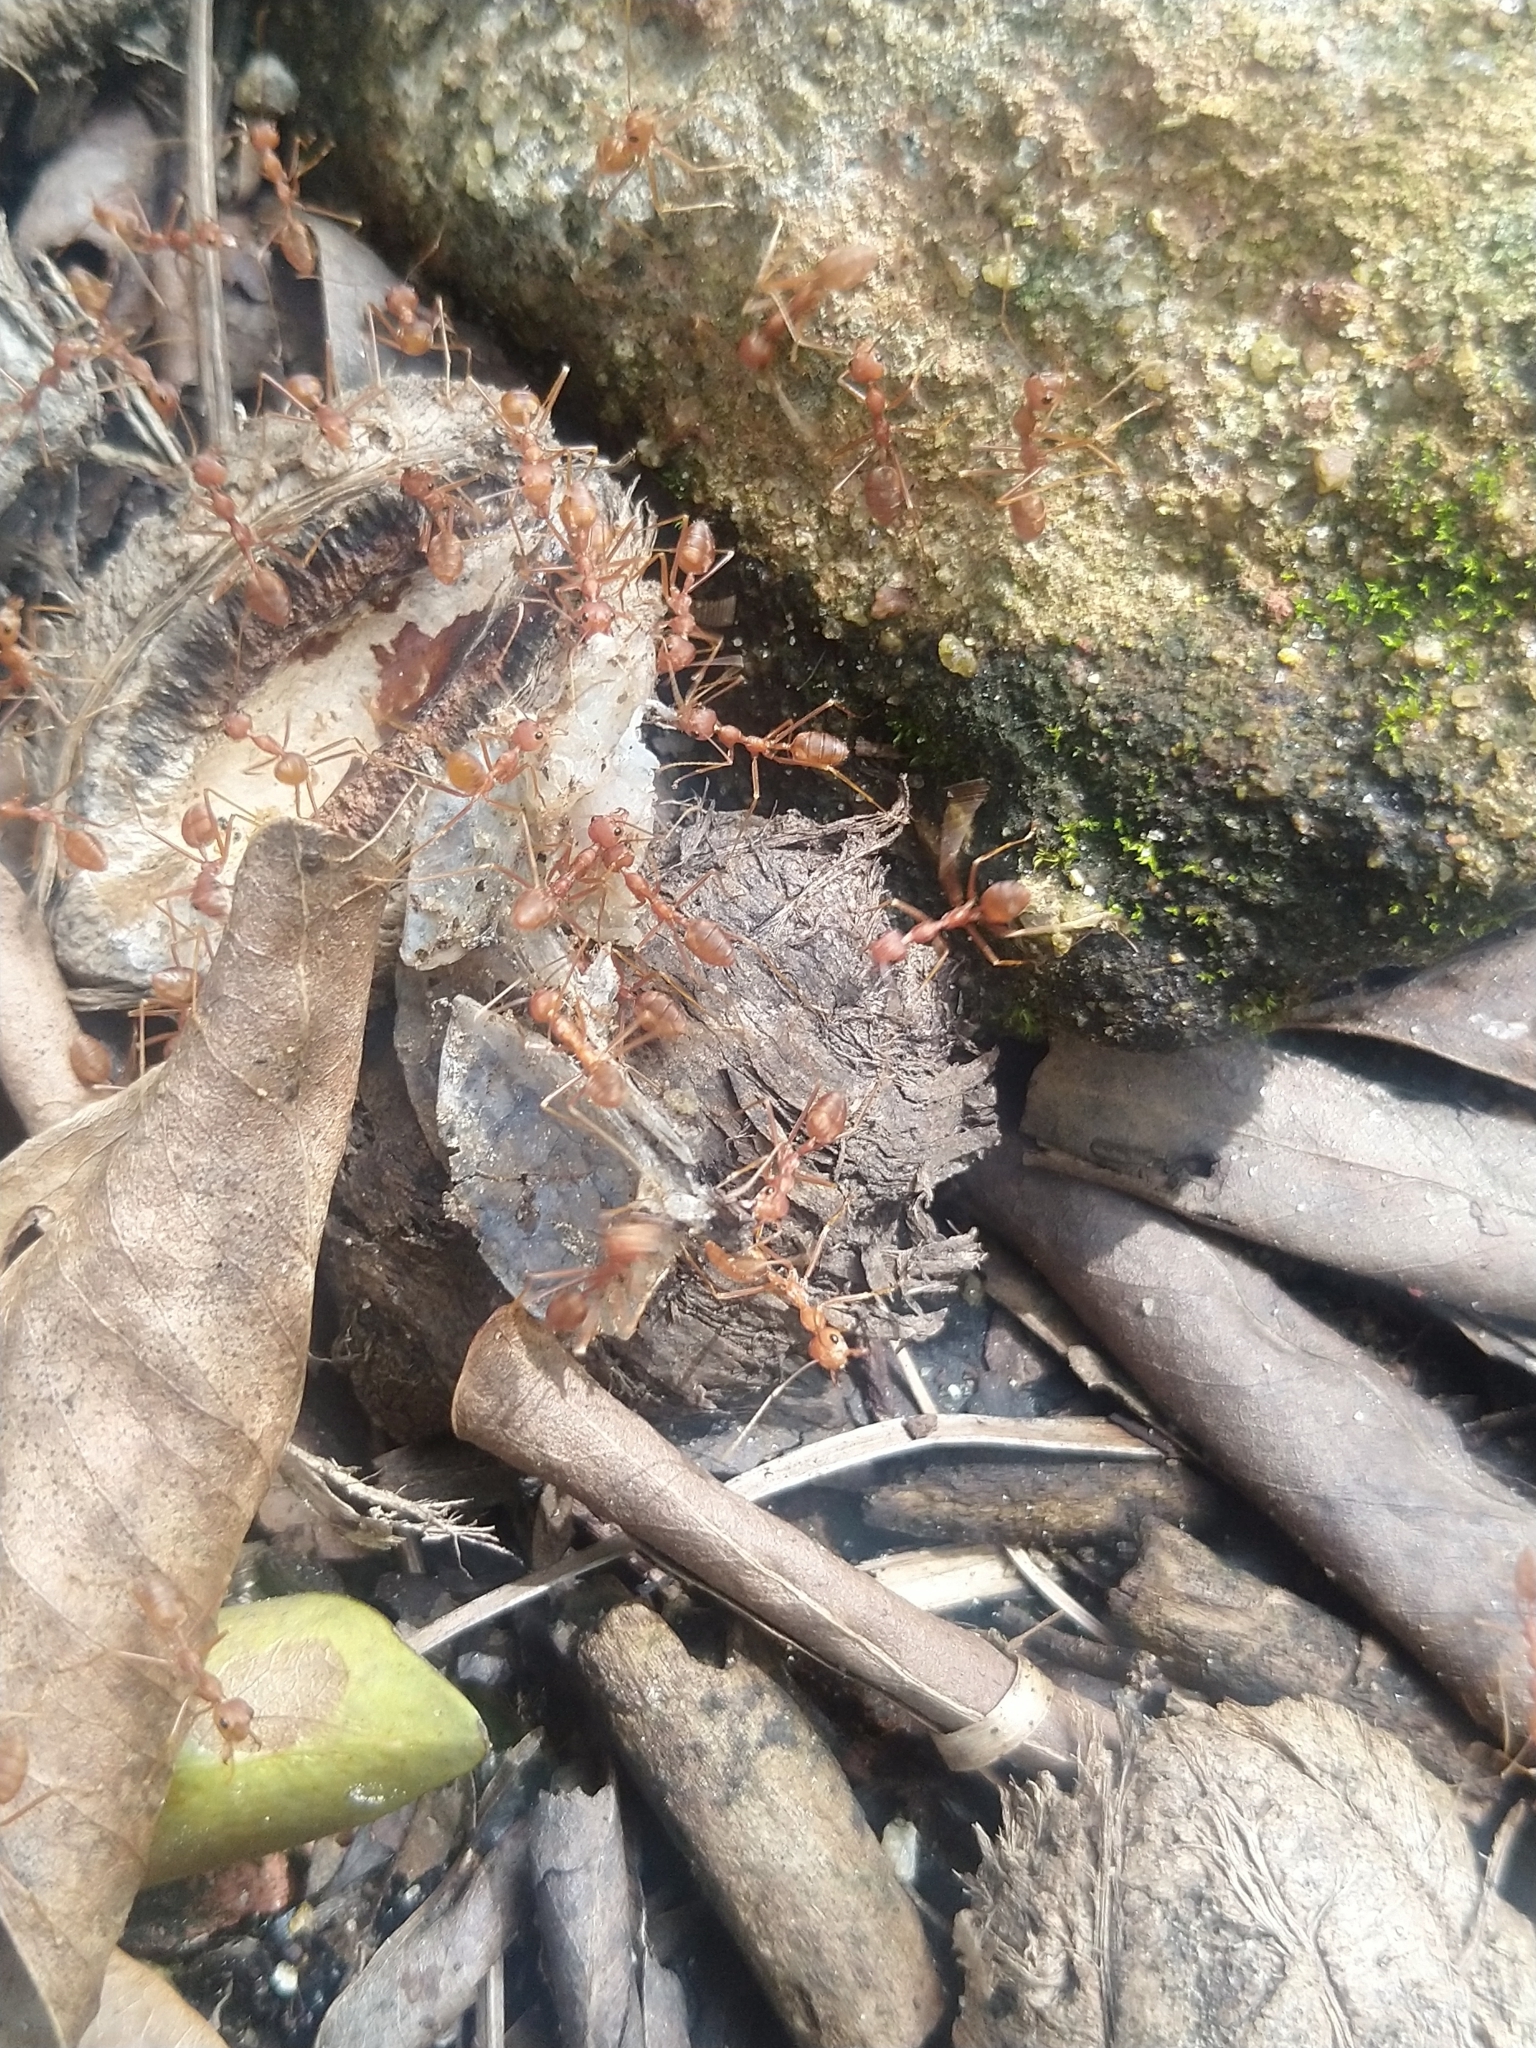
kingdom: Animalia
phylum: Arthropoda
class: Insecta
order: Hymenoptera
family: Formicidae
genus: Oecophylla
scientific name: Oecophylla smaragdina
